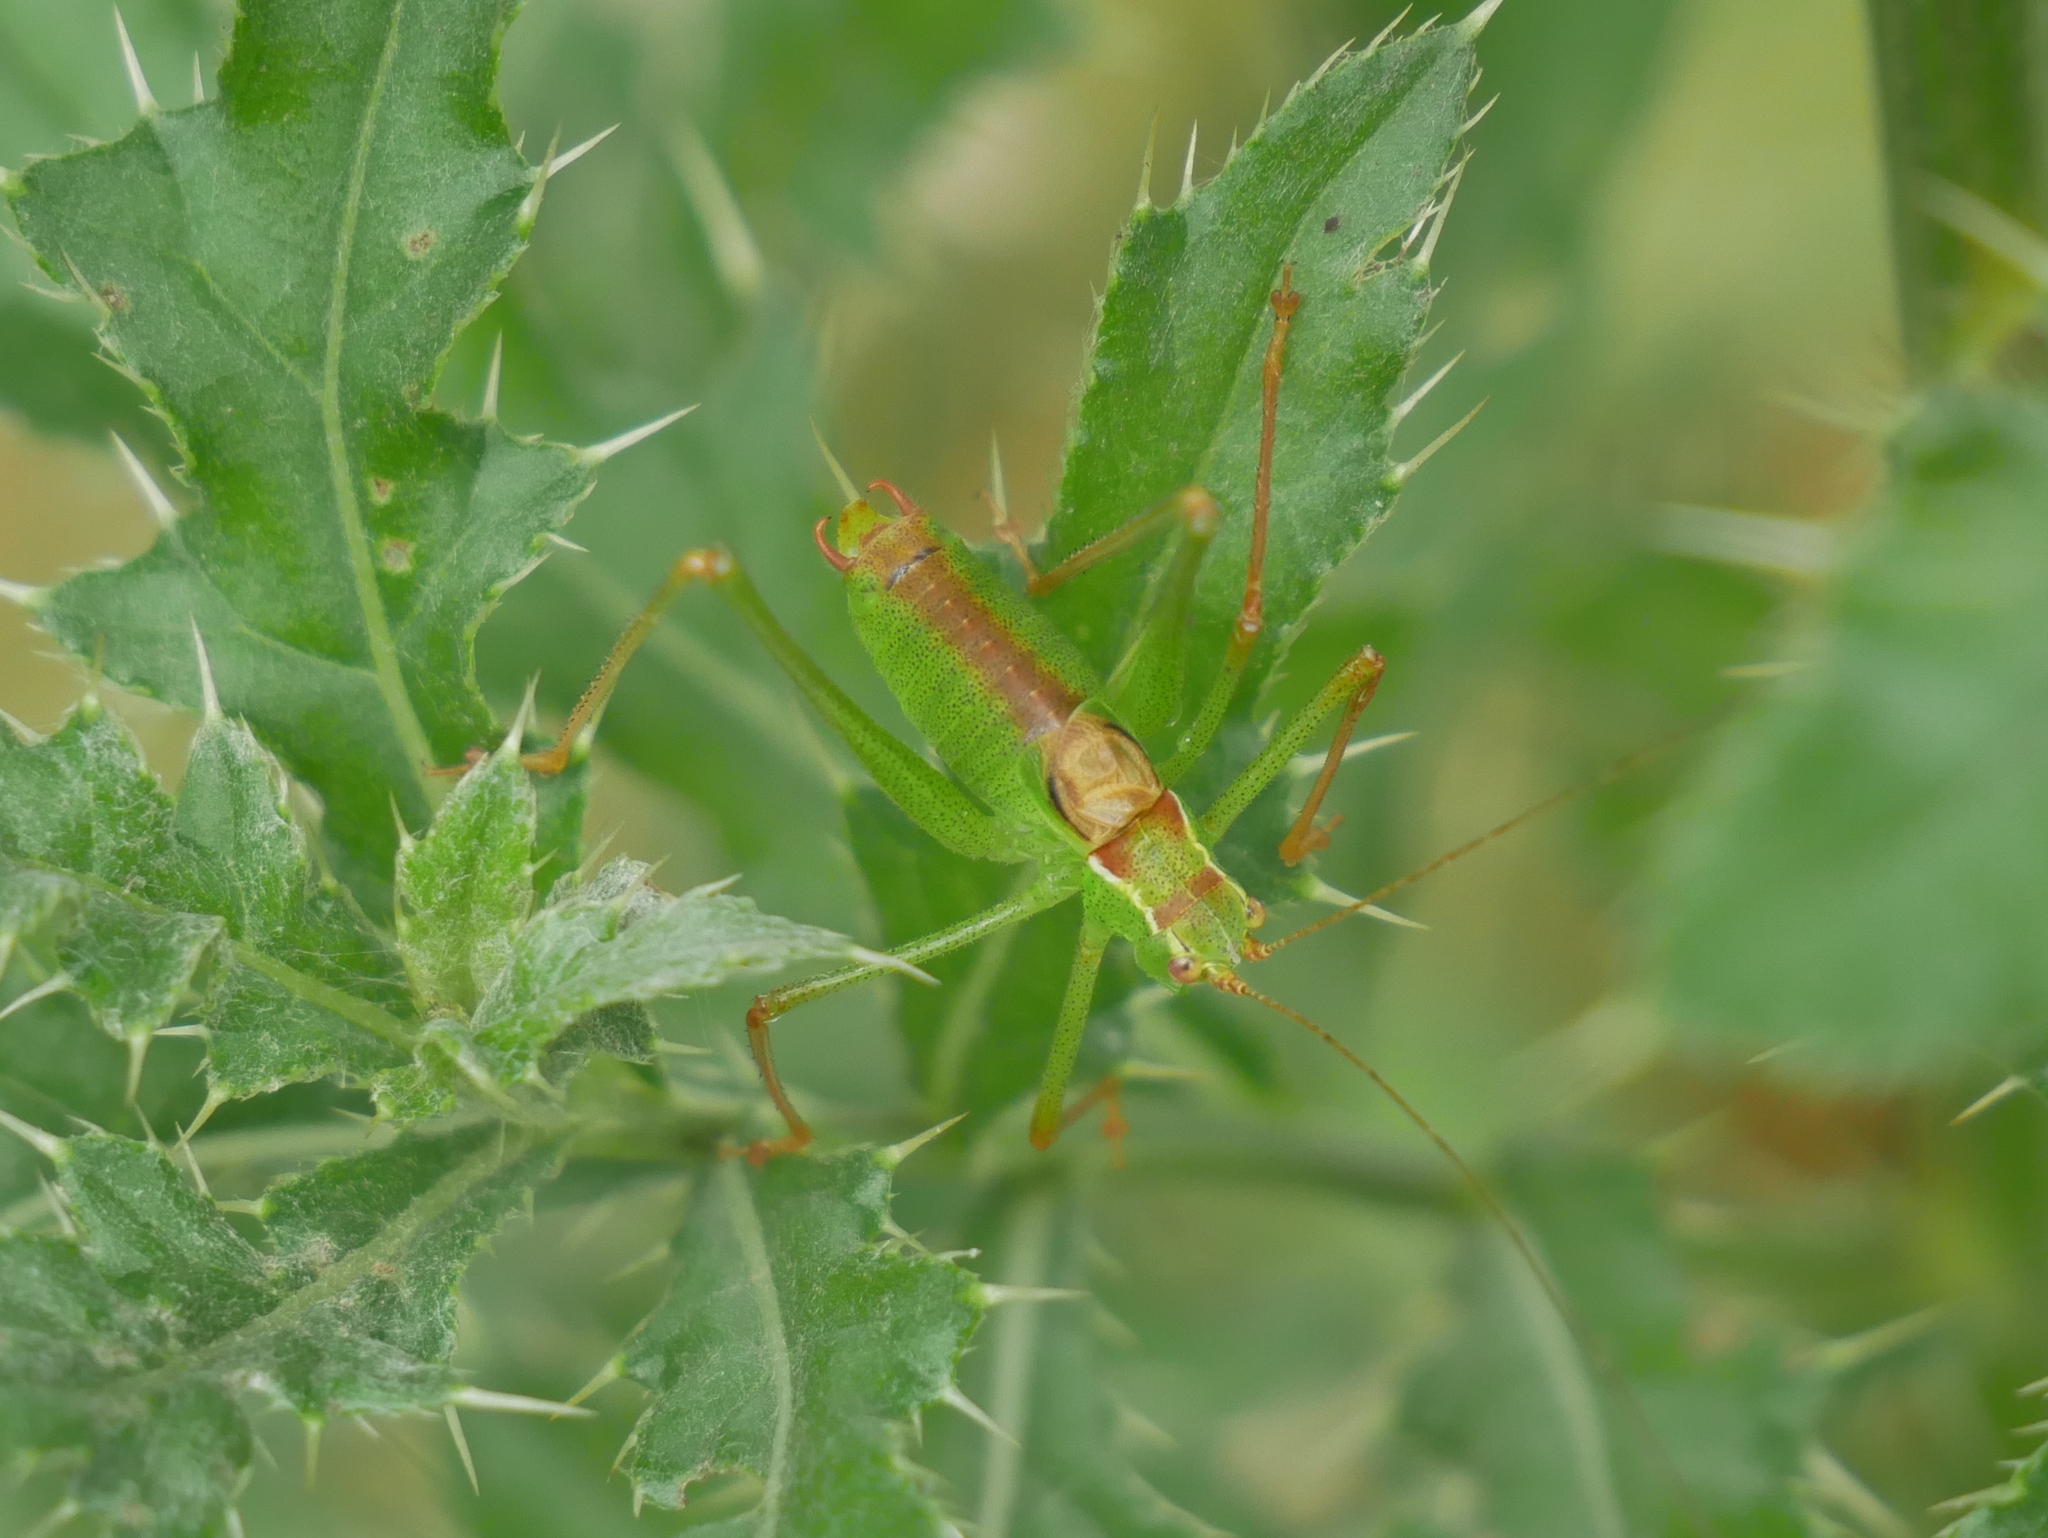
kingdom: Animalia
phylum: Arthropoda
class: Insecta
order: Orthoptera
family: Tettigoniidae
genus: Leptophyes
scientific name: Leptophyes punctatissima
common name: Speckled bush-cricket
